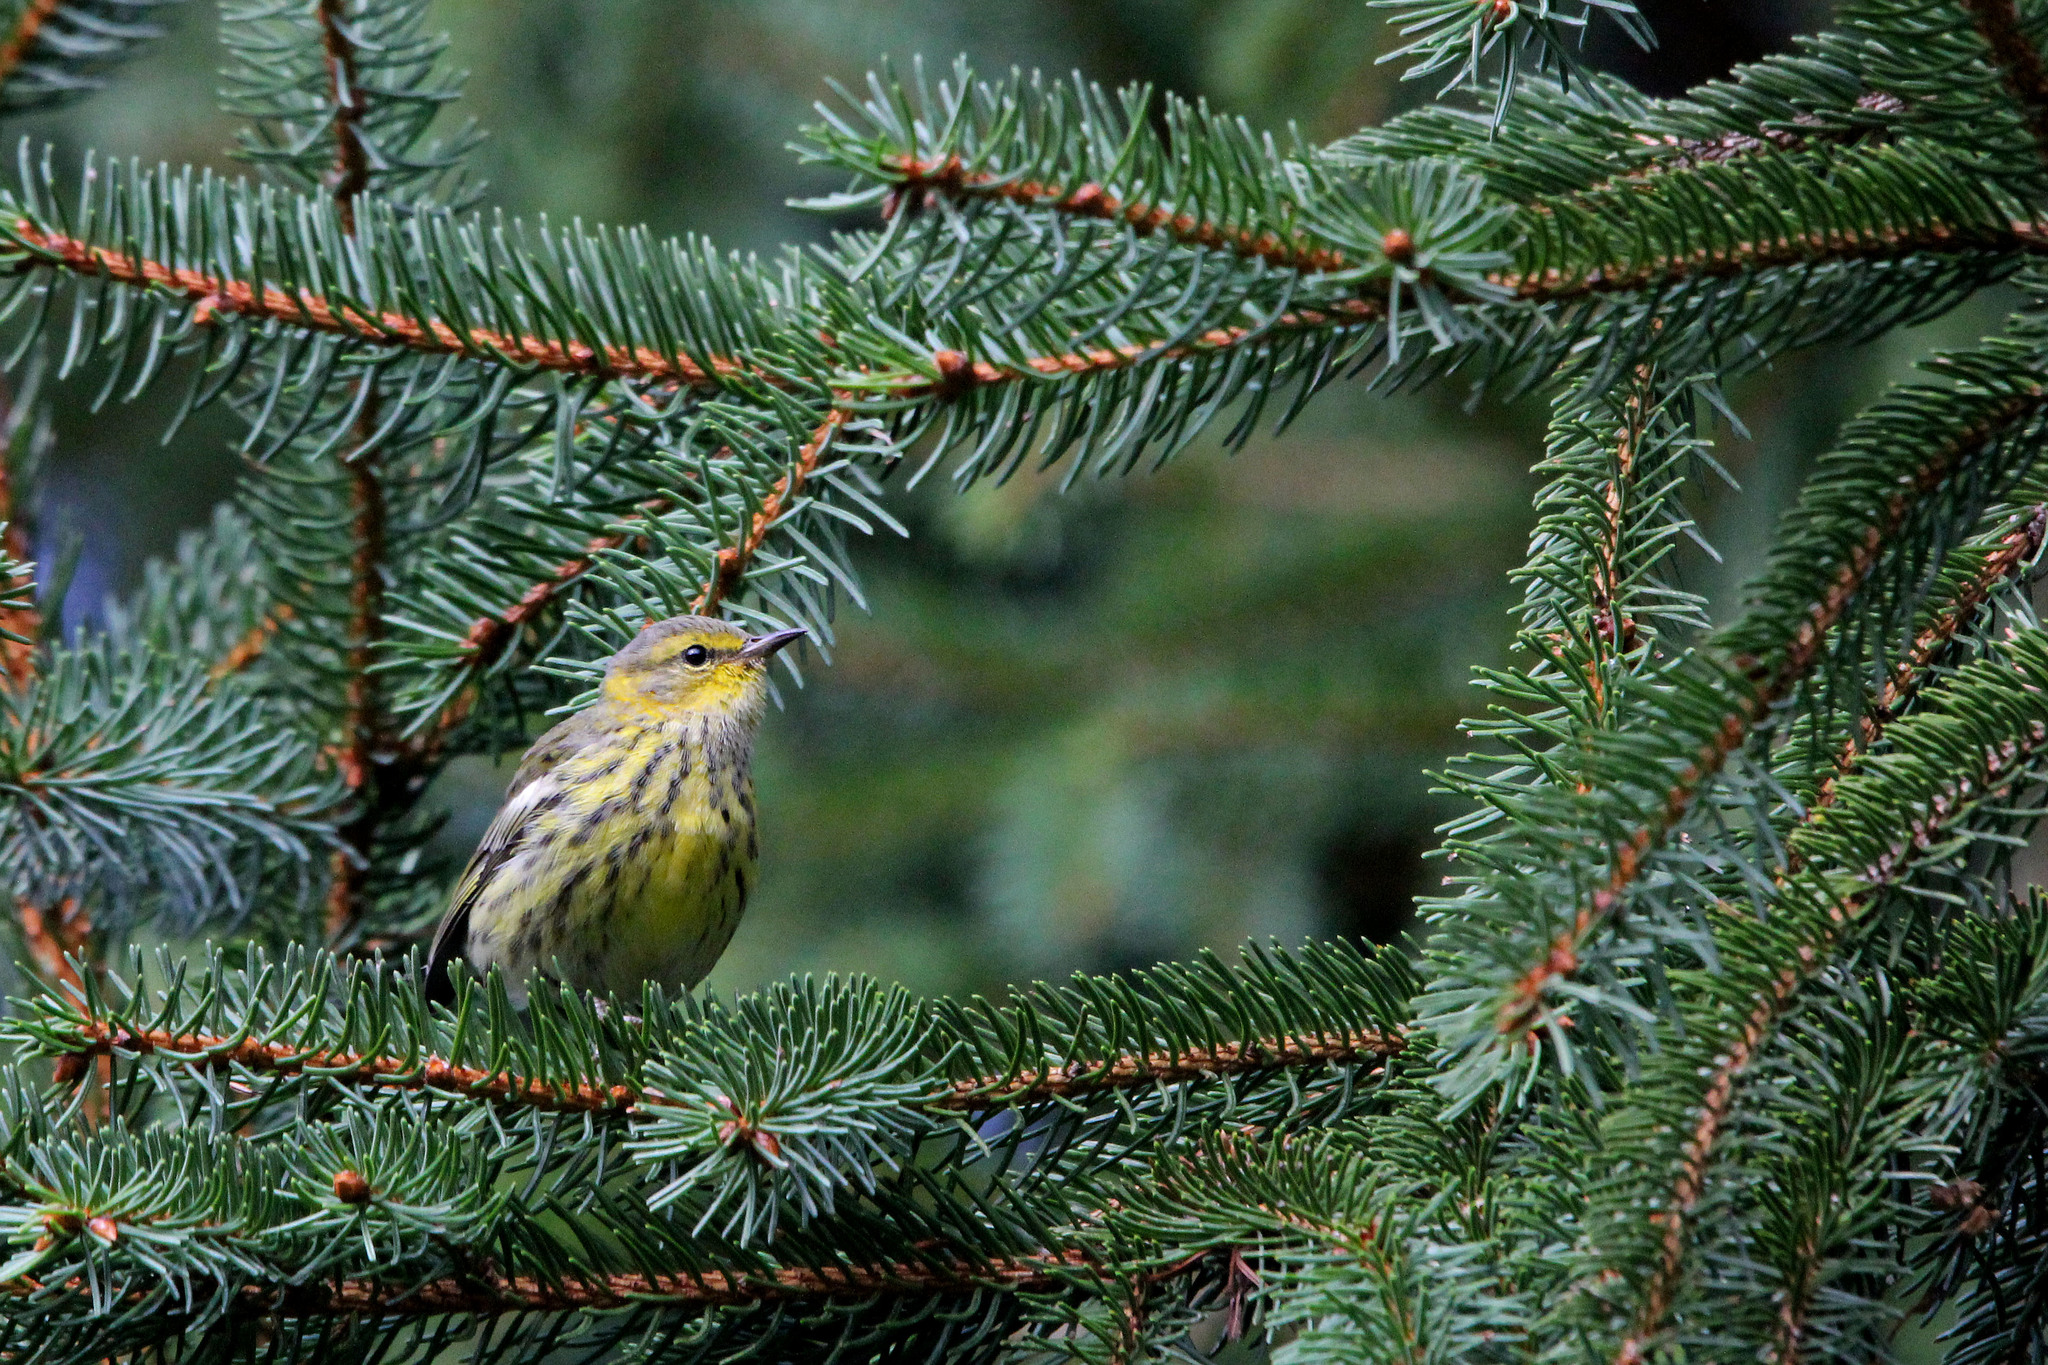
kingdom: Animalia
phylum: Chordata
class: Aves
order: Passeriformes
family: Parulidae
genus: Setophaga
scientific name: Setophaga tigrina
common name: Cape may warbler
